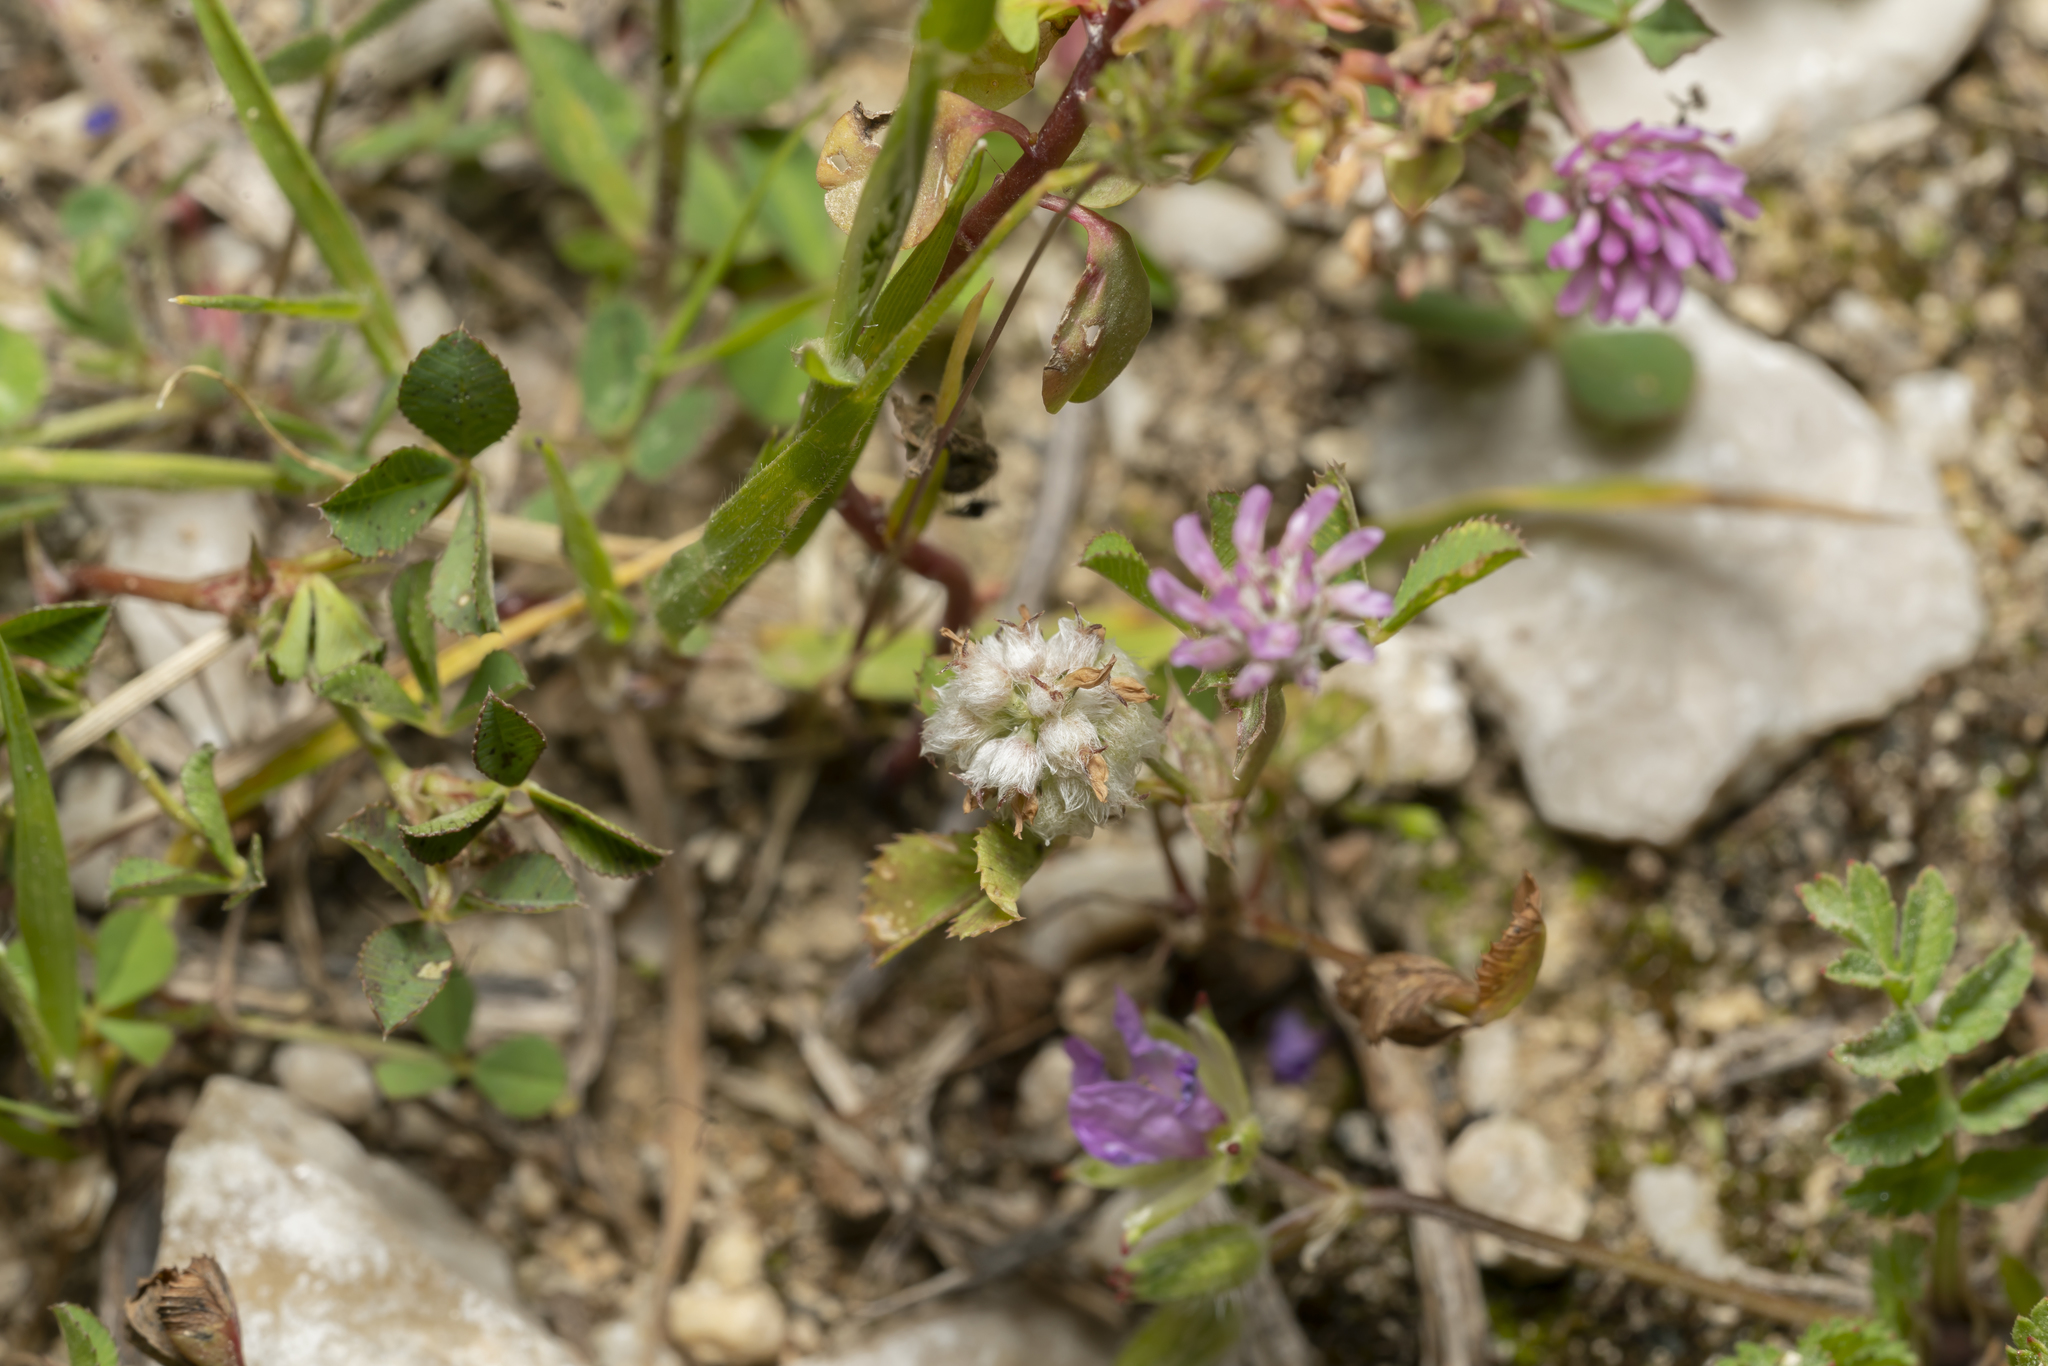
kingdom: Plantae
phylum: Tracheophyta
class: Magnoliopsida
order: Fabales
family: Fabaceae
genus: Trifolium
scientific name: Trifolium resupinatum
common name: Reversed clover
